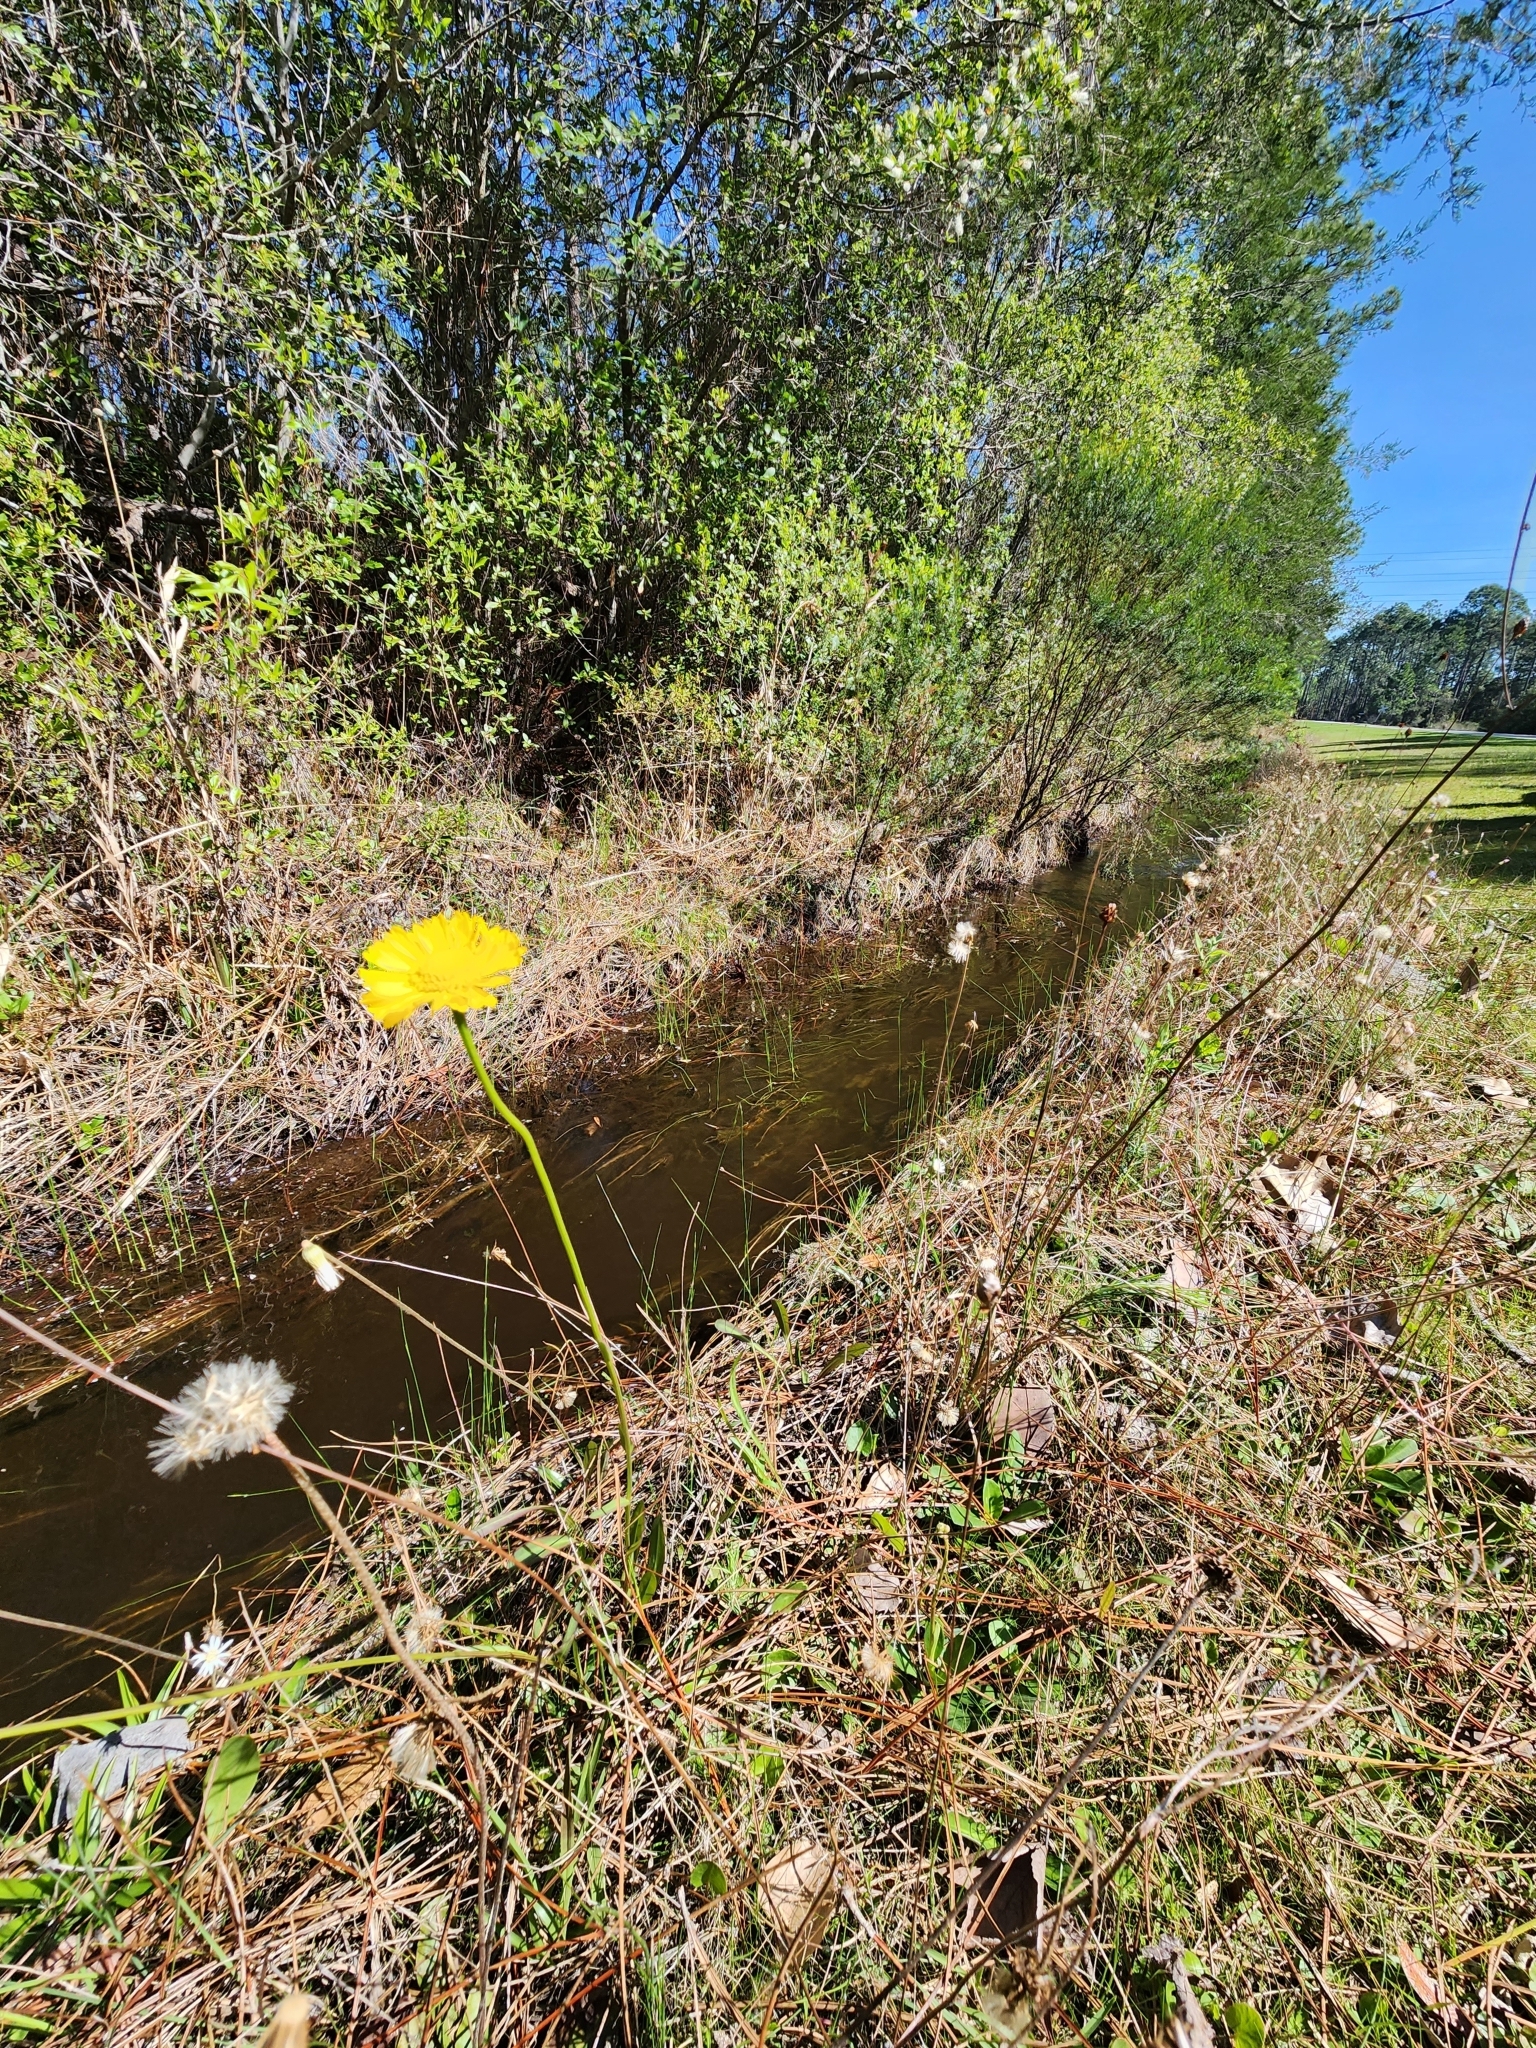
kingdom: Plantae
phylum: Tracheophyta
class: Magnoliopsida
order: Asterales
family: Asteraceae
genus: Helenium
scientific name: Helenium vernale
